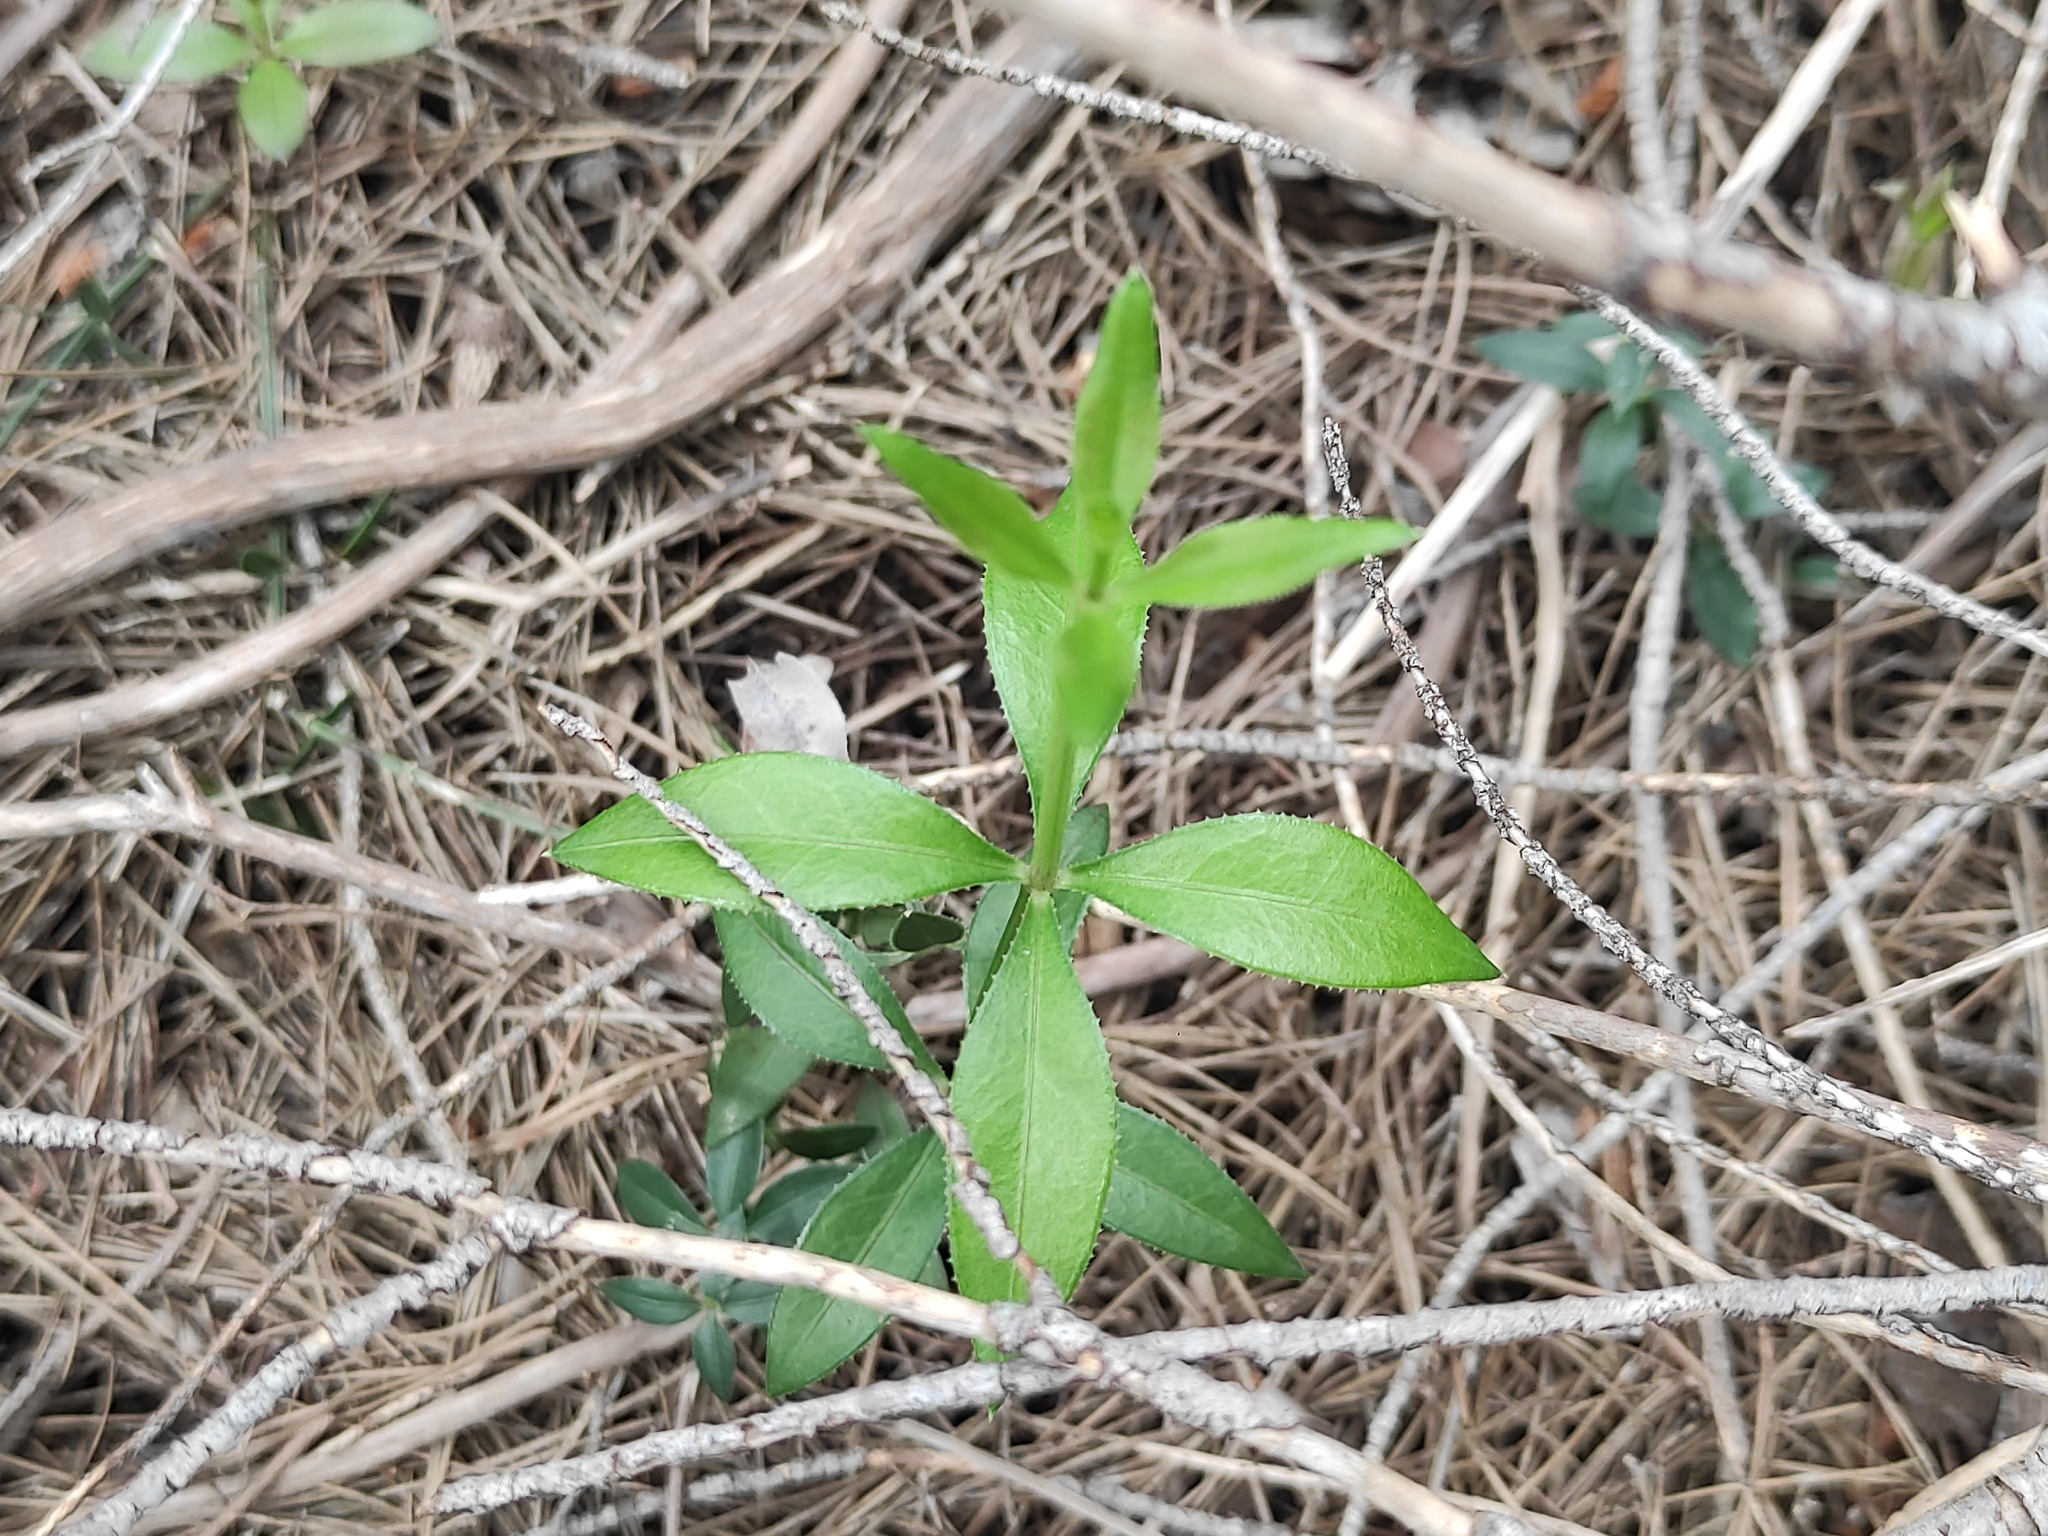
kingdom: Plantae
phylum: Tracheophyta
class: Magnoliopsida
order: Gentianales
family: Rubiaceae
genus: Rubia
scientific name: Rubia peregrina
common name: Wild madder
